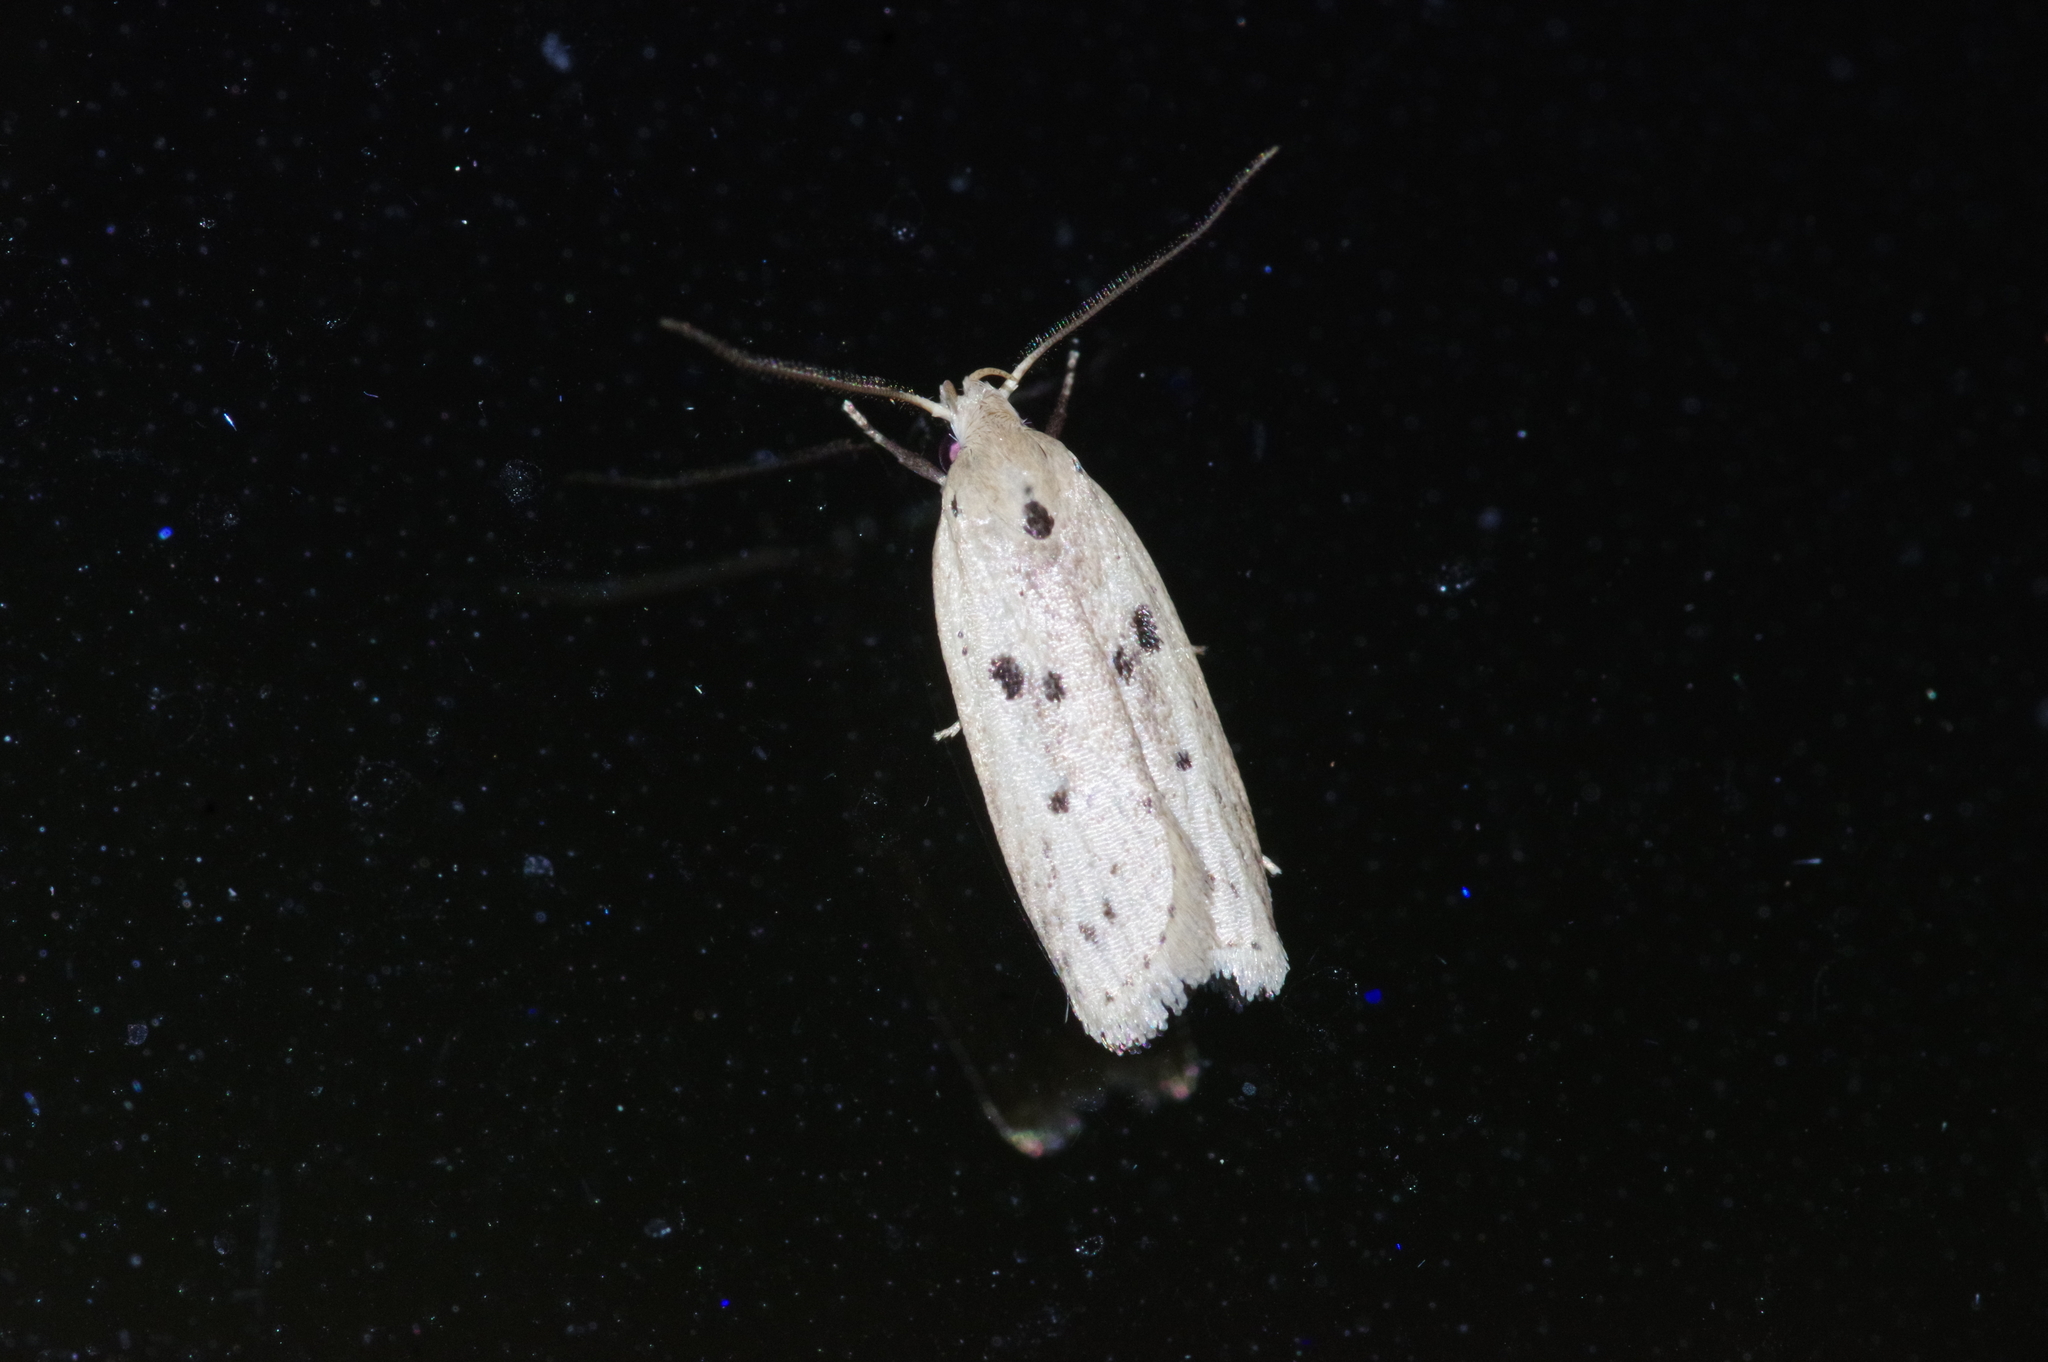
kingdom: Animalia
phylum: Arthropoda
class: Insecta
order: Lepidoptera
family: Peleopodidae
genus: Scythropiodes
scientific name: Scythropiodes issikii
